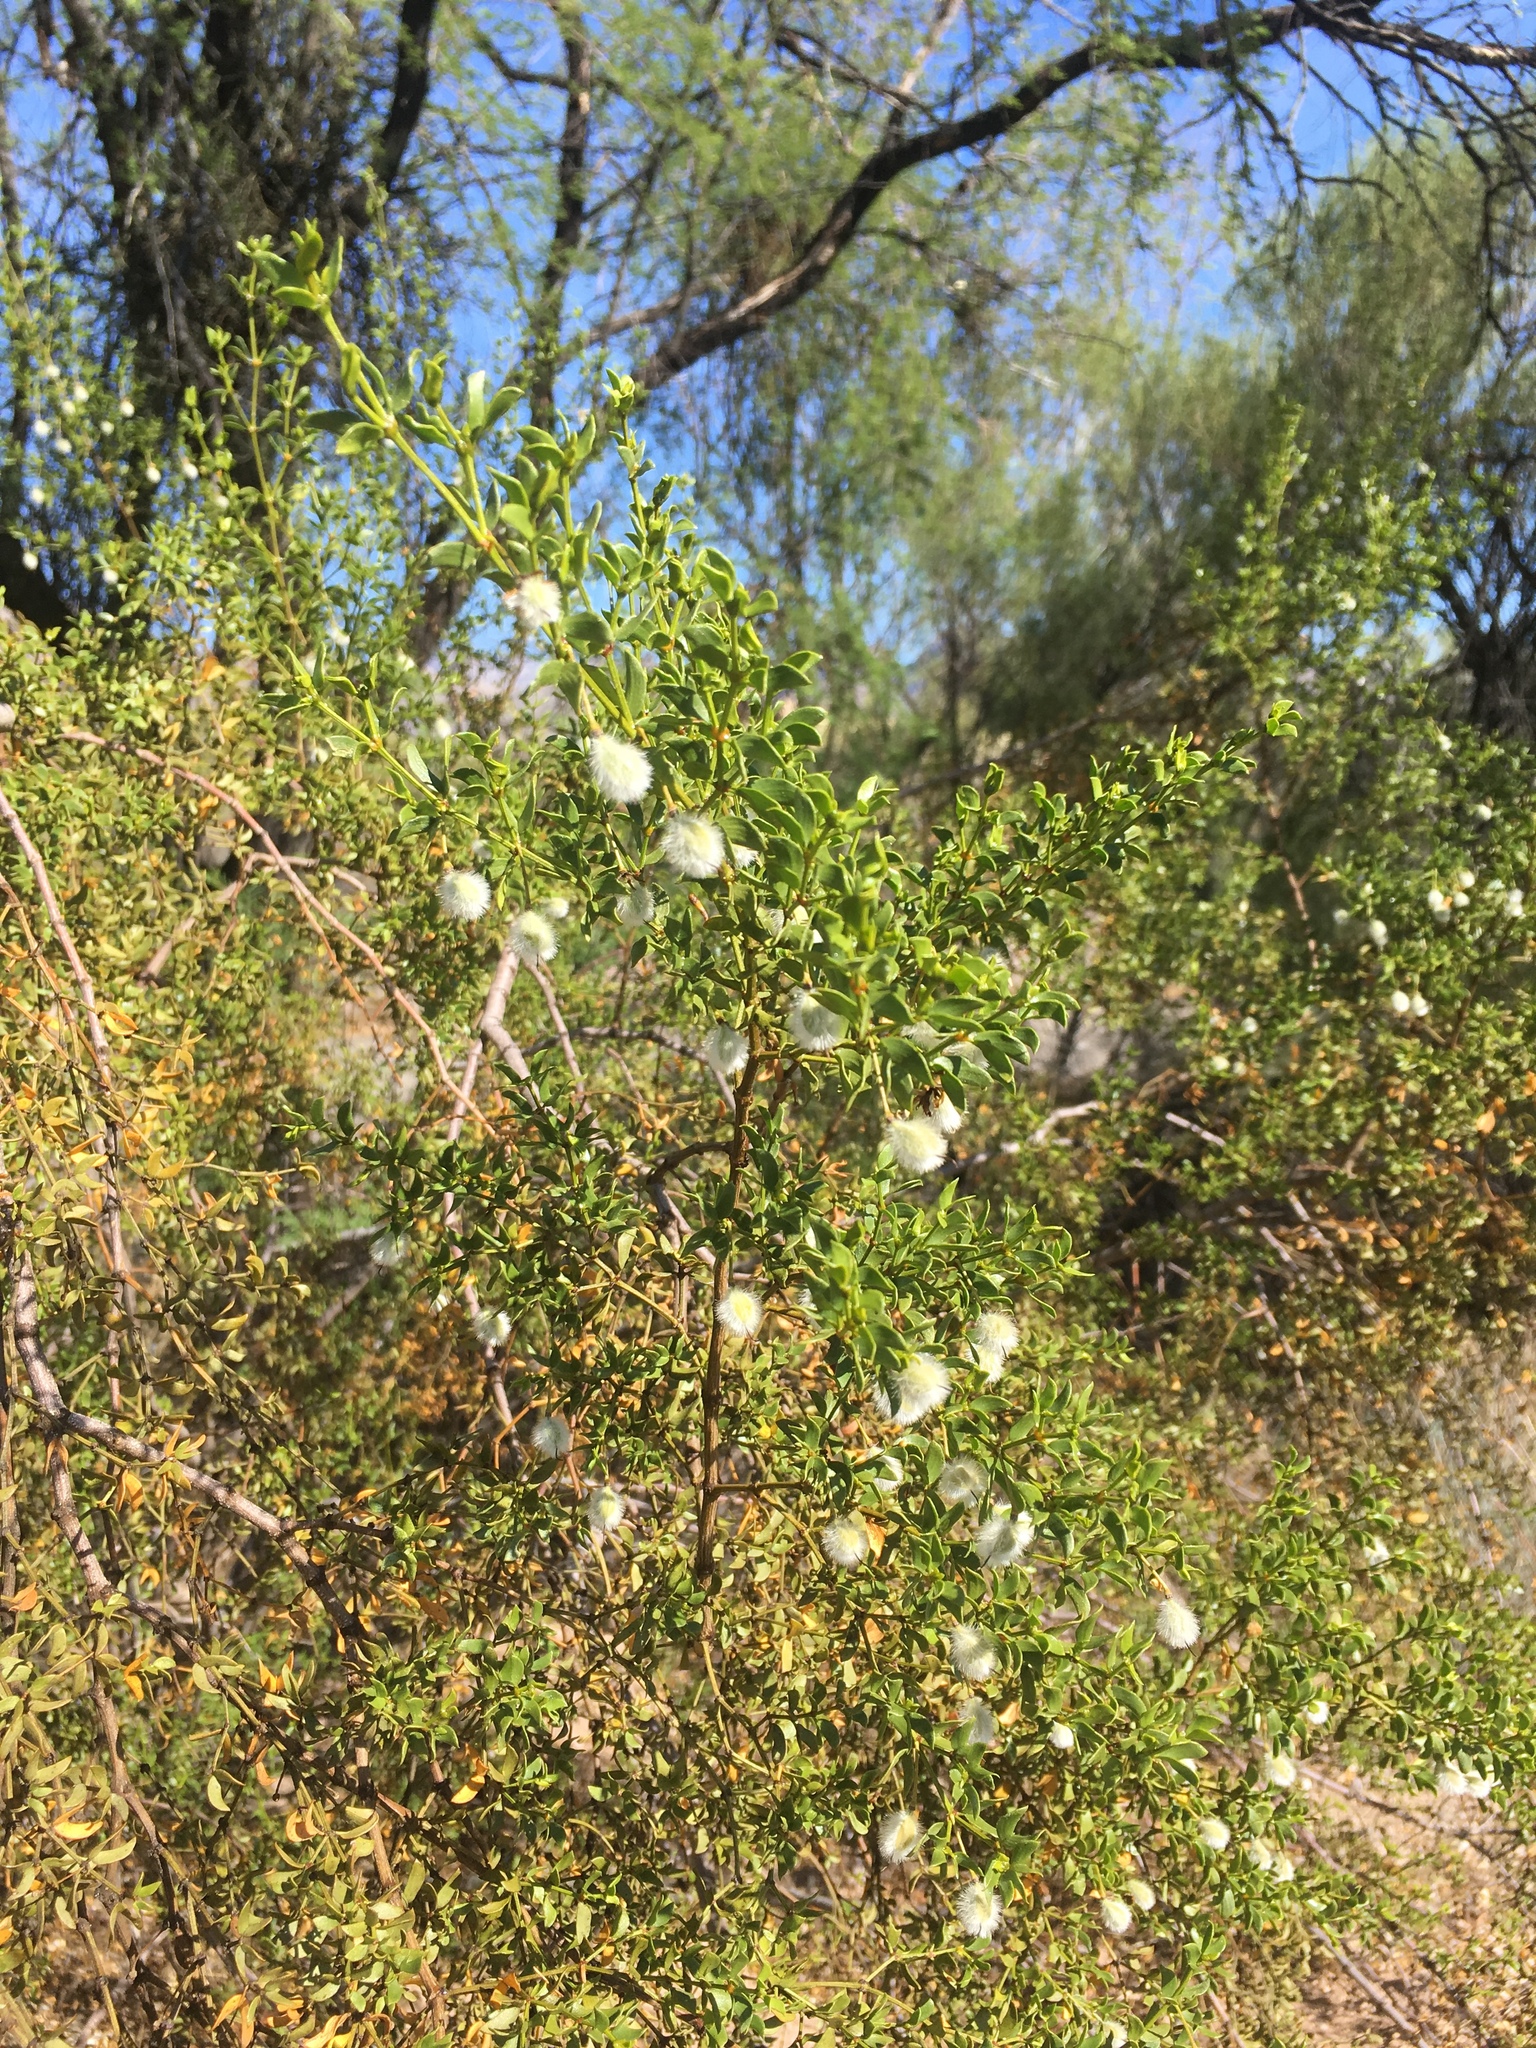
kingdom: Plantae
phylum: Tracheophyta
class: Magnoliopsida
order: Zygophyllales
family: Zygophyllaceae
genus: Larrea
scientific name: Larrea tridentata
